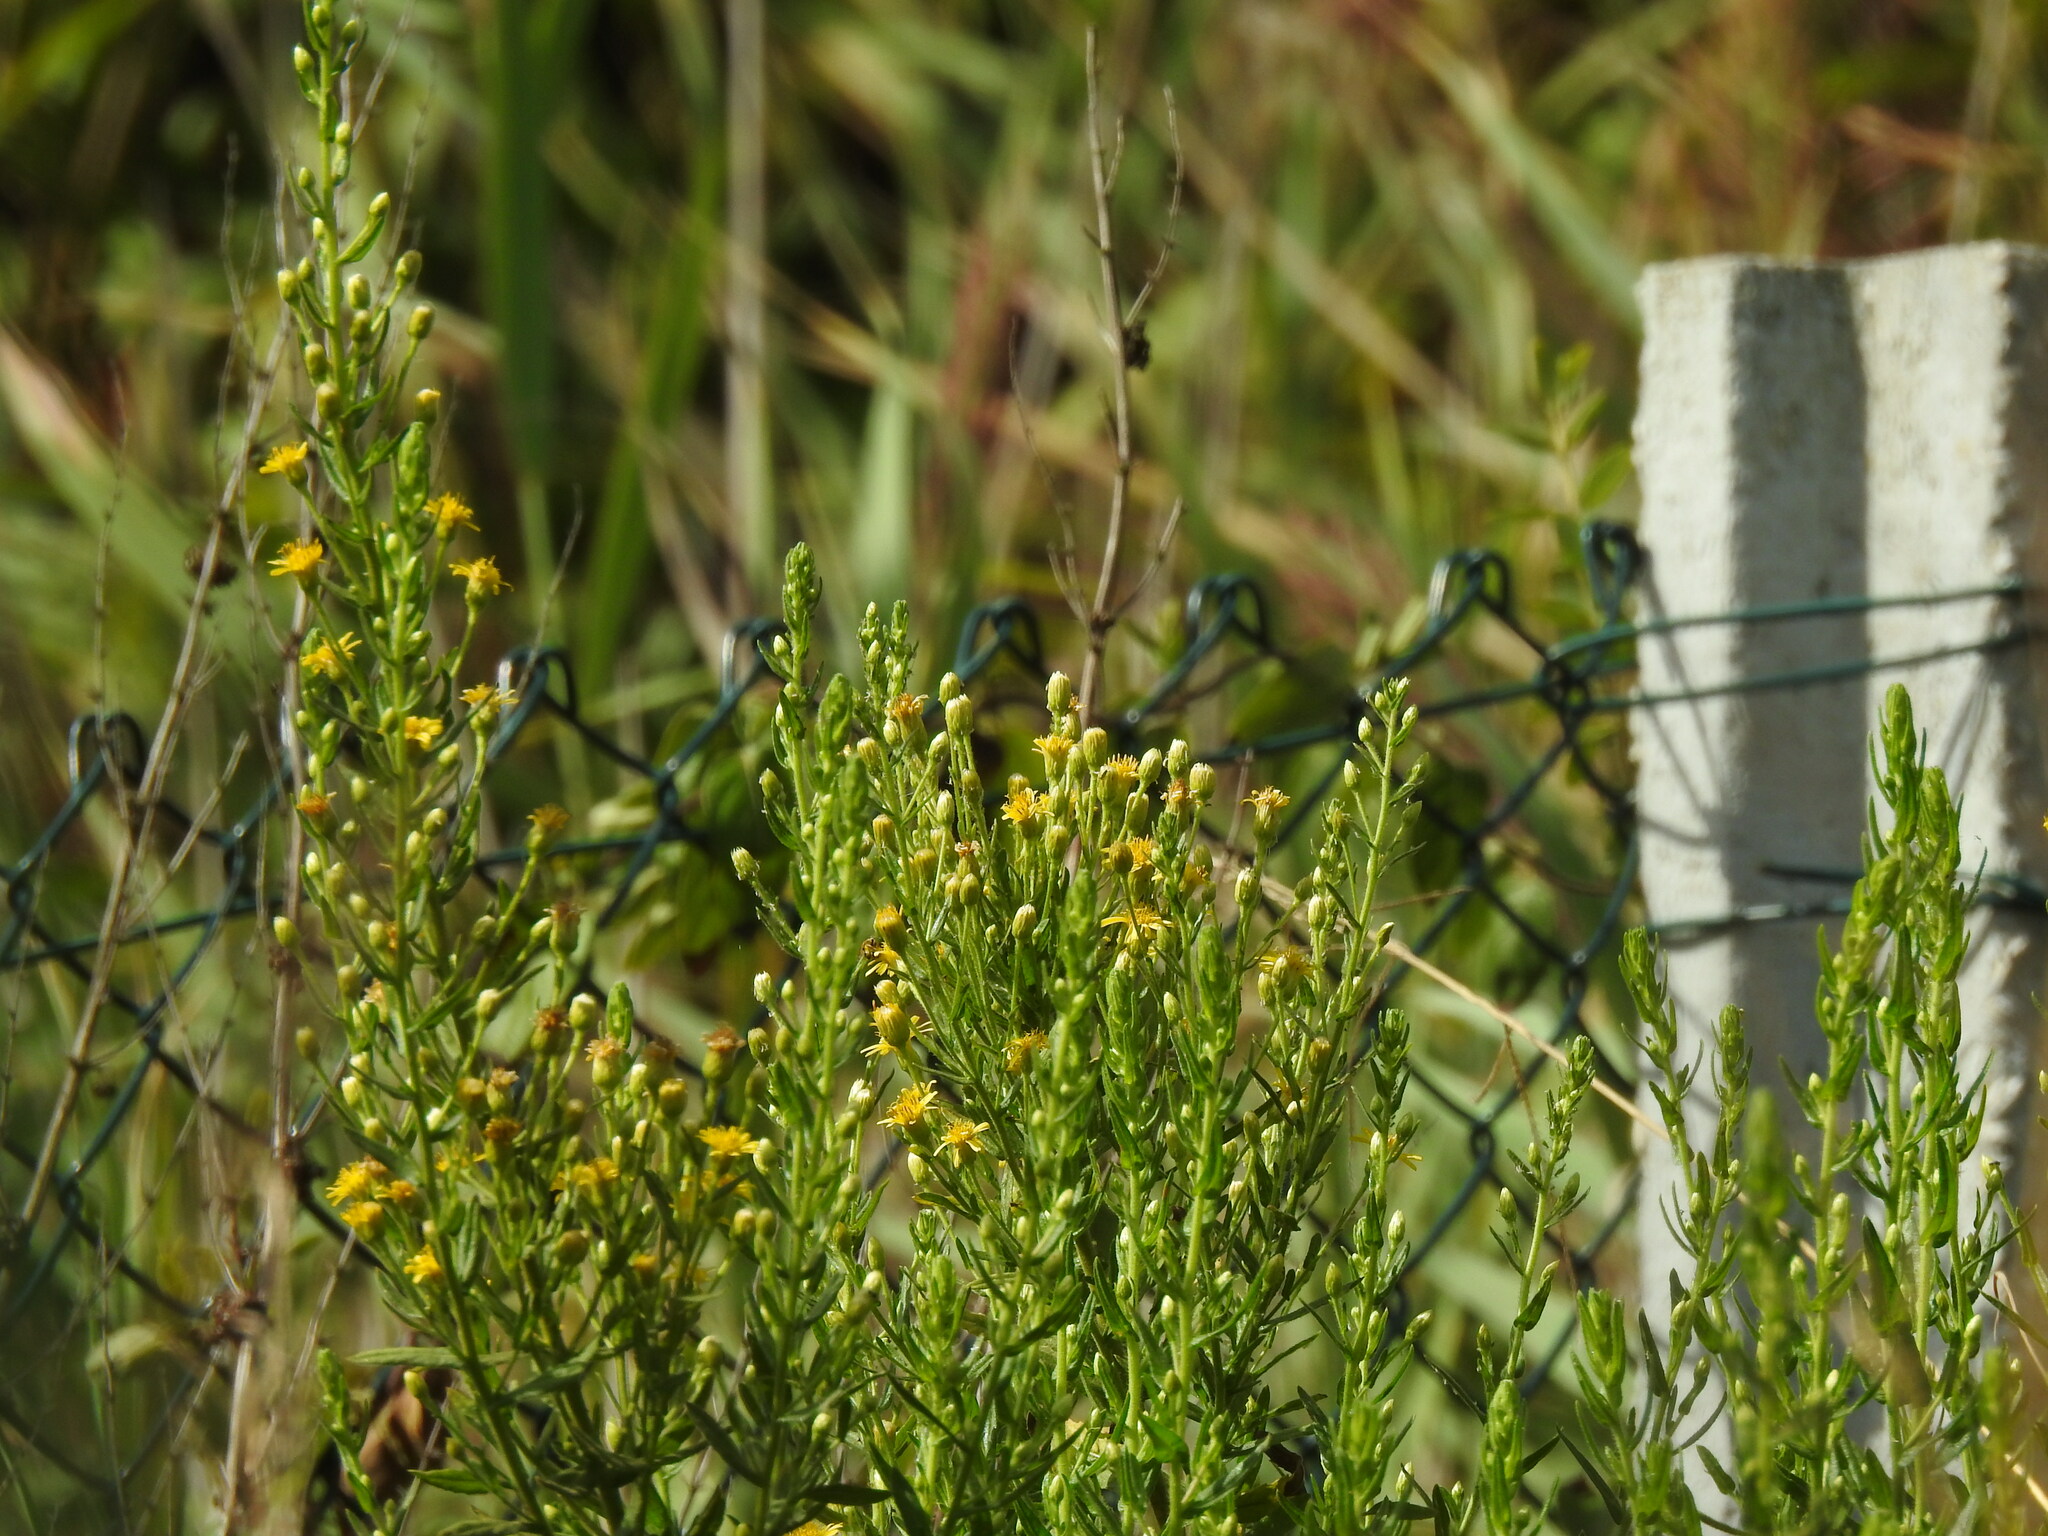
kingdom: Plantae
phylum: Tracheophyta
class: Magnoliopsida
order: Asterales
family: Asteraceae
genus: Dittrichia
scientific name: Dittrichia viscosa
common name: Woody fleabane
